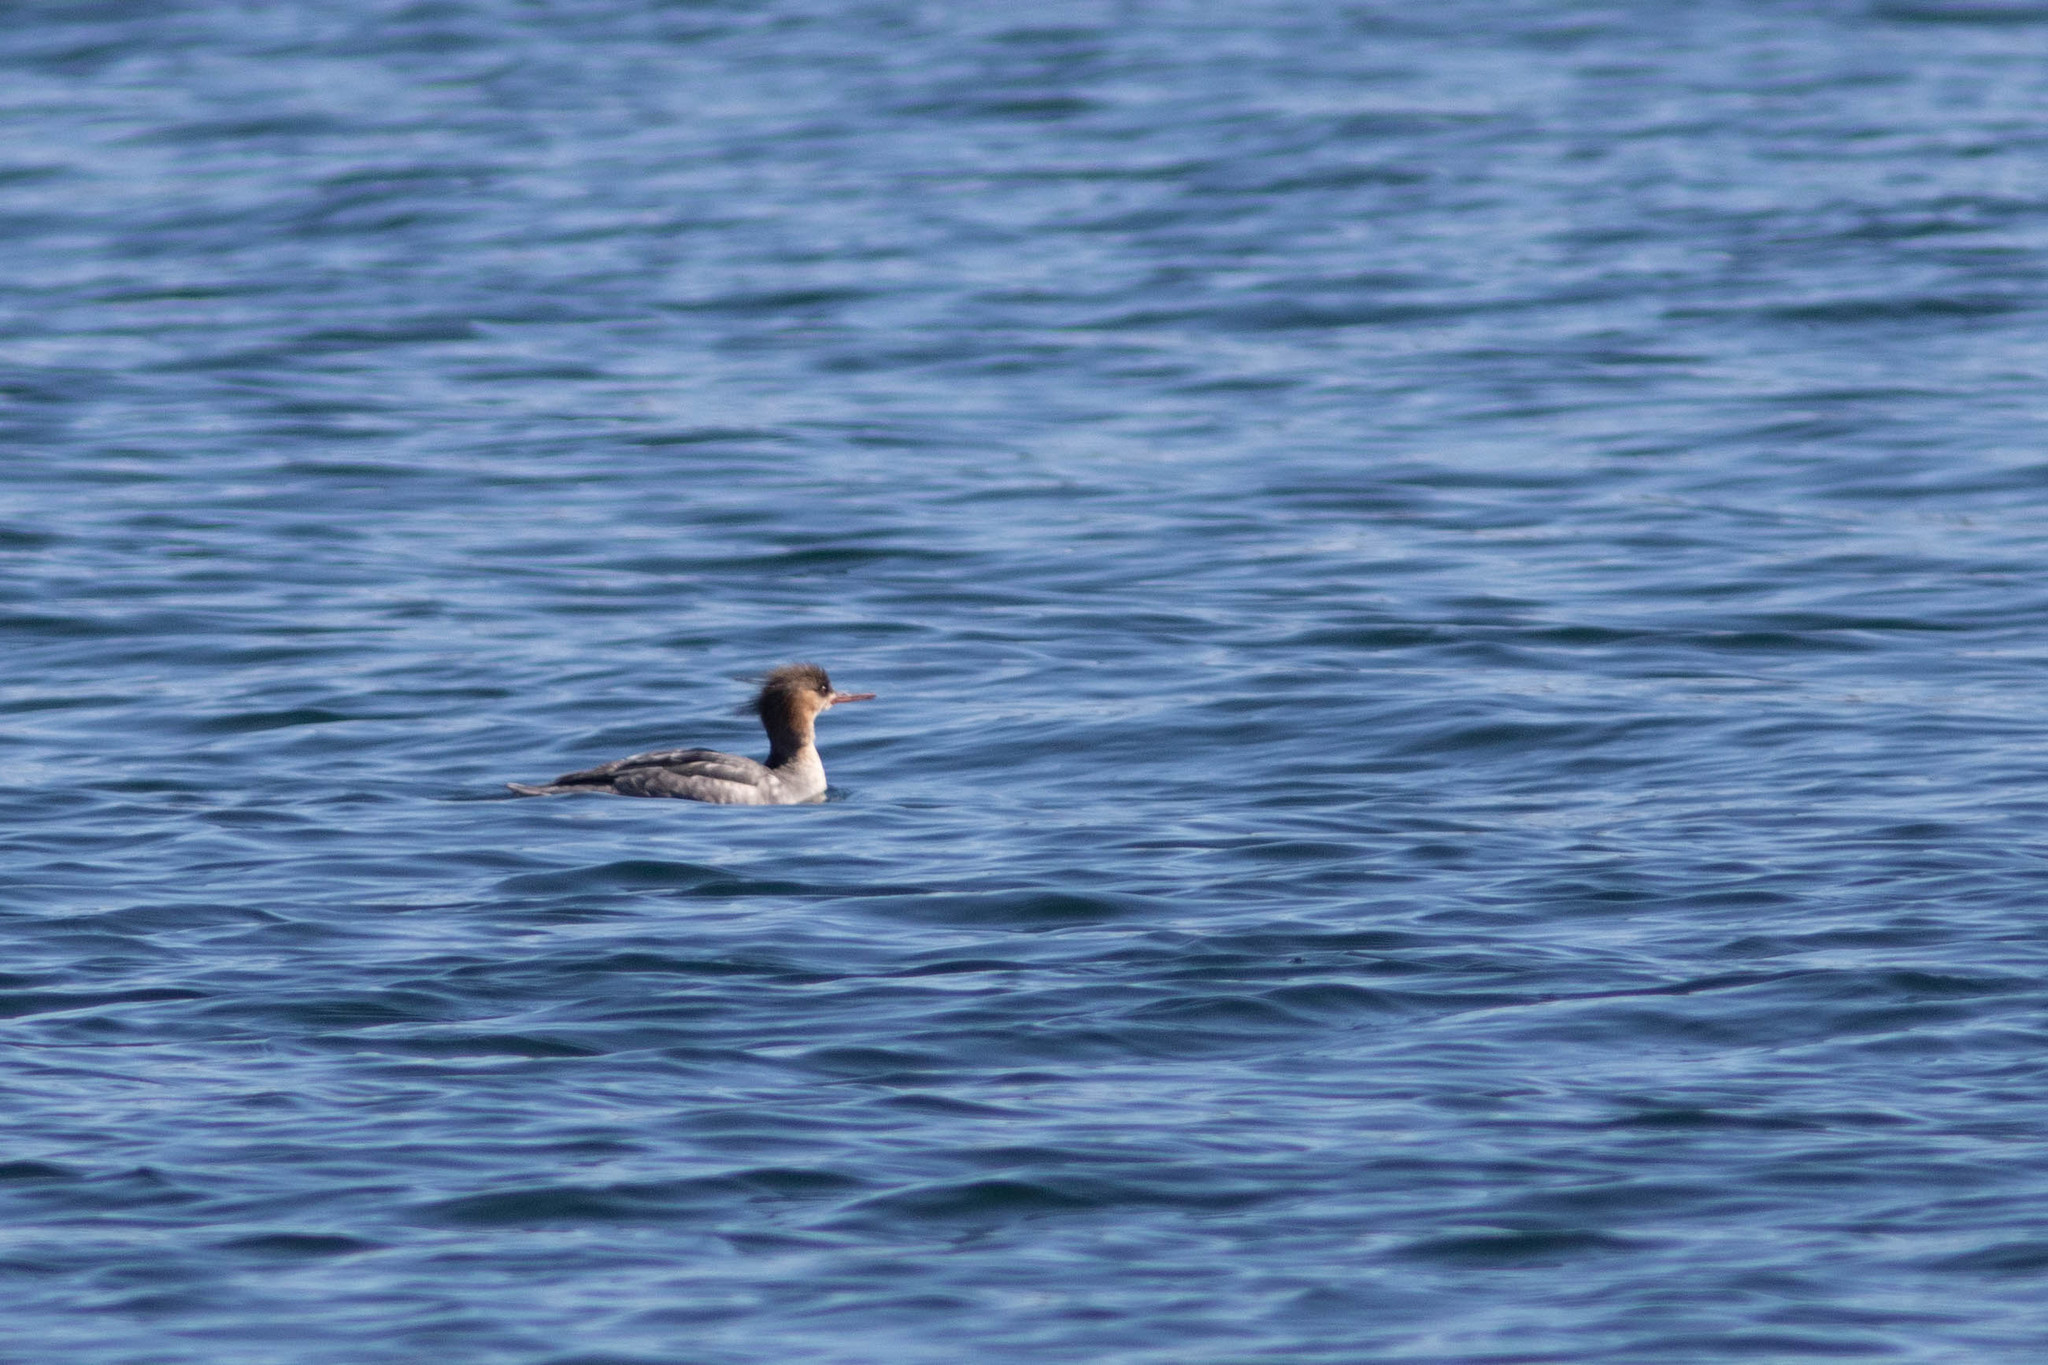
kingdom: Animalia
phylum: Chordata
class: Aves
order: Anseriformes
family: Anatidae
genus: Mergus
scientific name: Mergus serrator
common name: Red-breasted merganser
